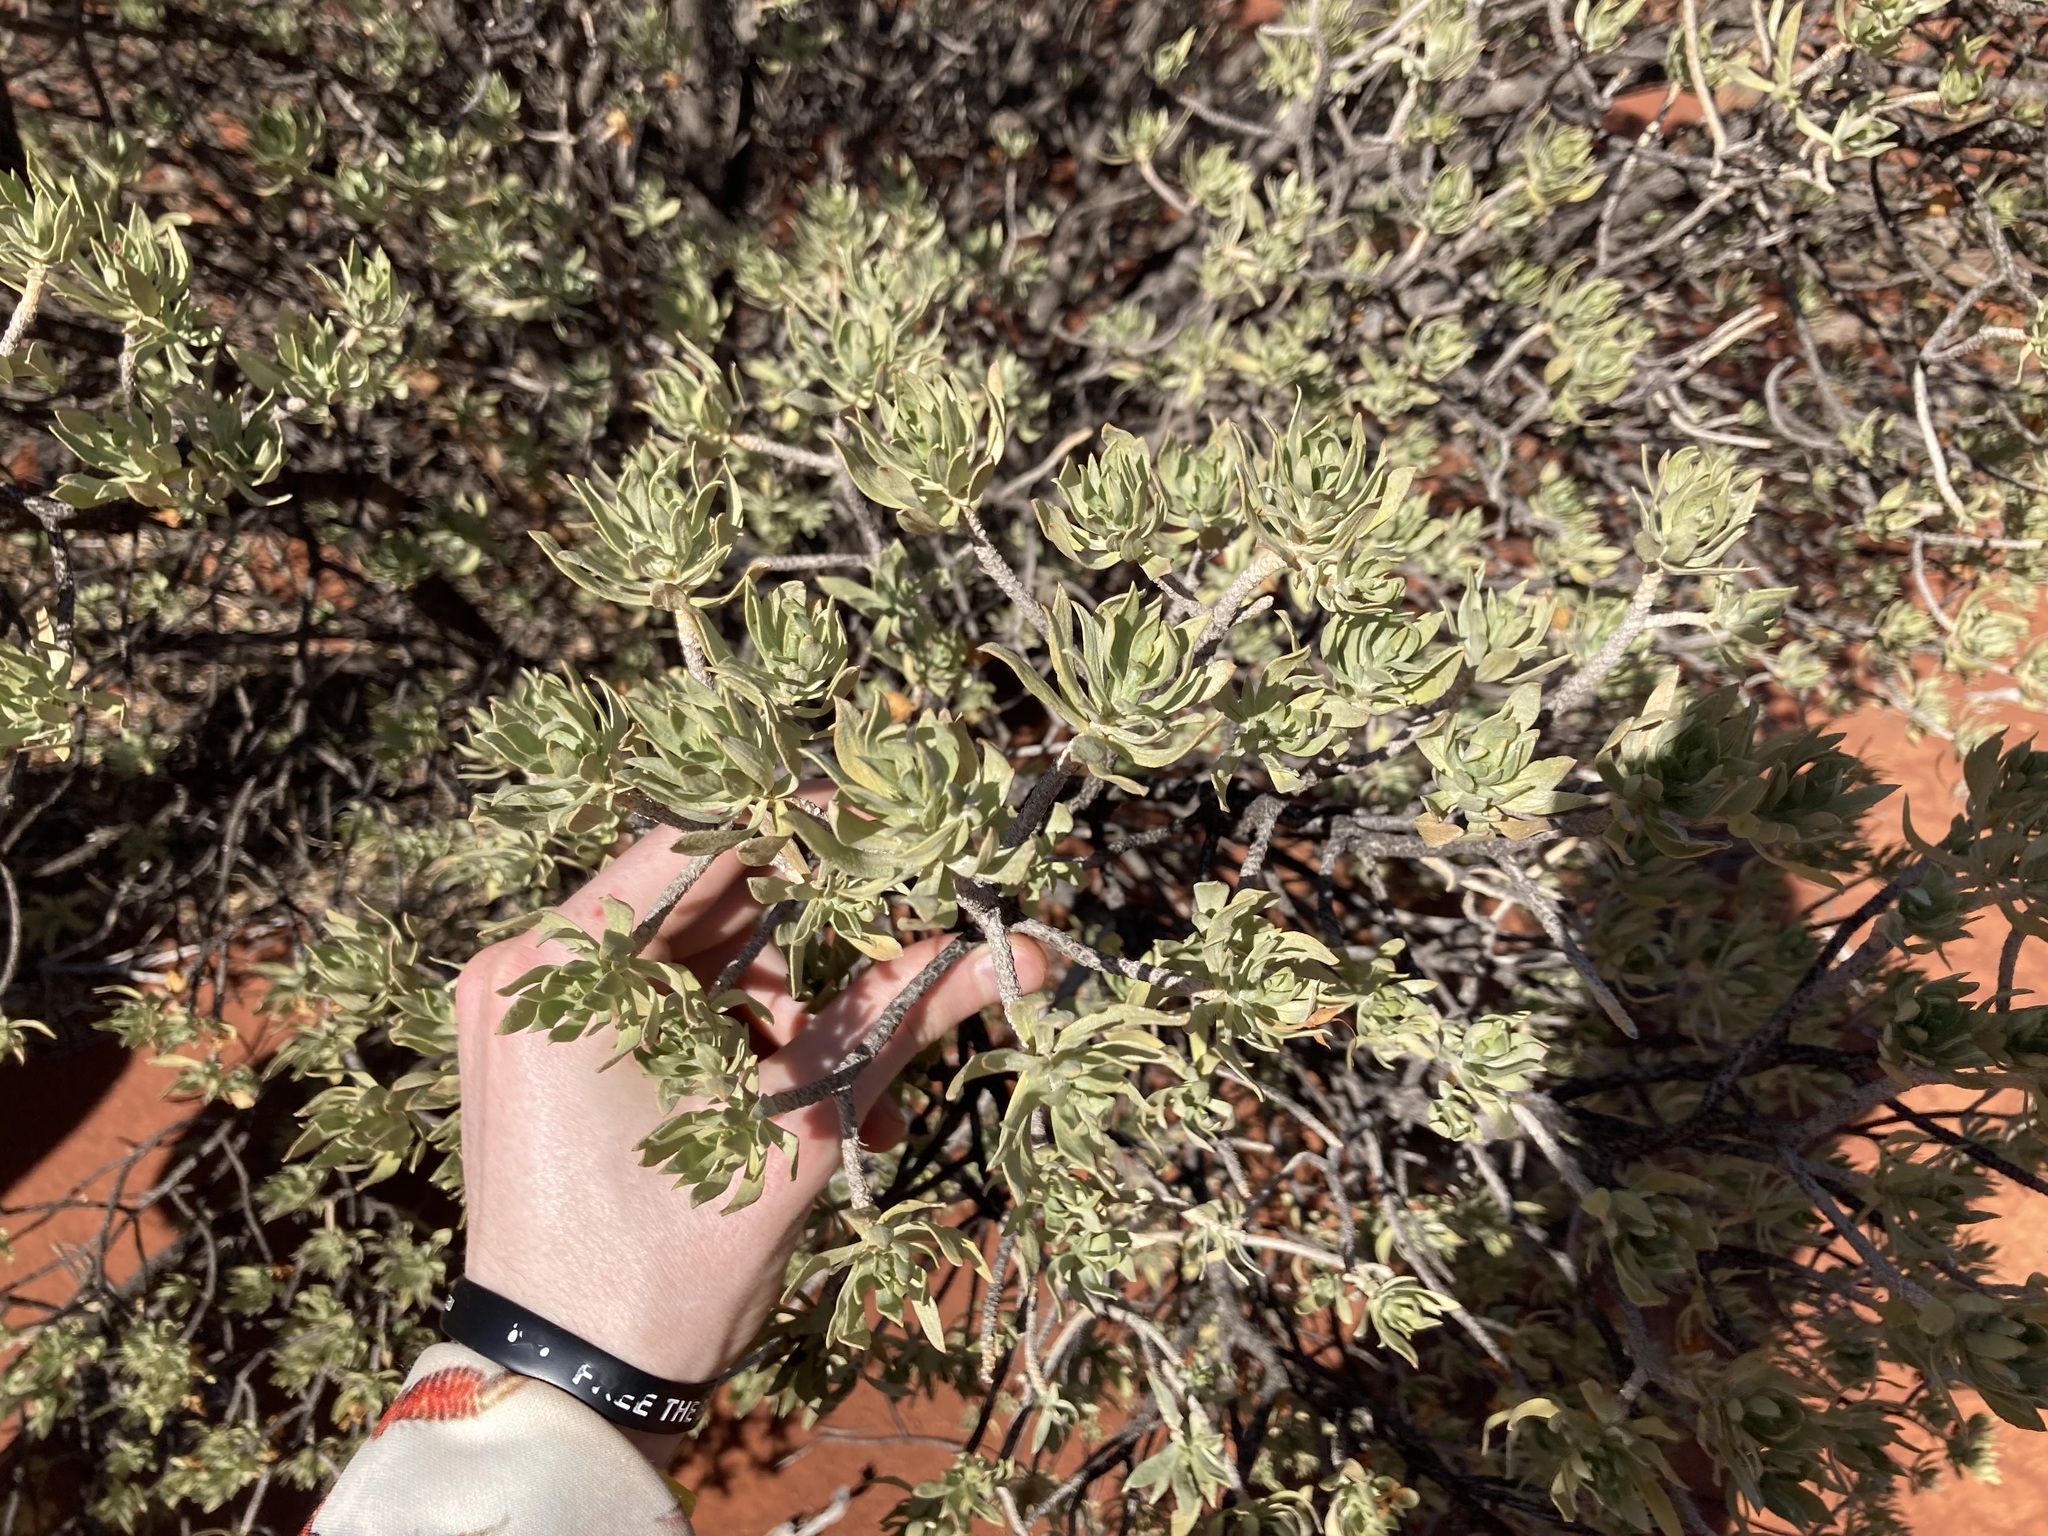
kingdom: Plantae
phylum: Tracheophyta
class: Magnoliopsida
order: Lamiales
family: Scrophulariaceae
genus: Eremophila
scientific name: Eremophila miniata
